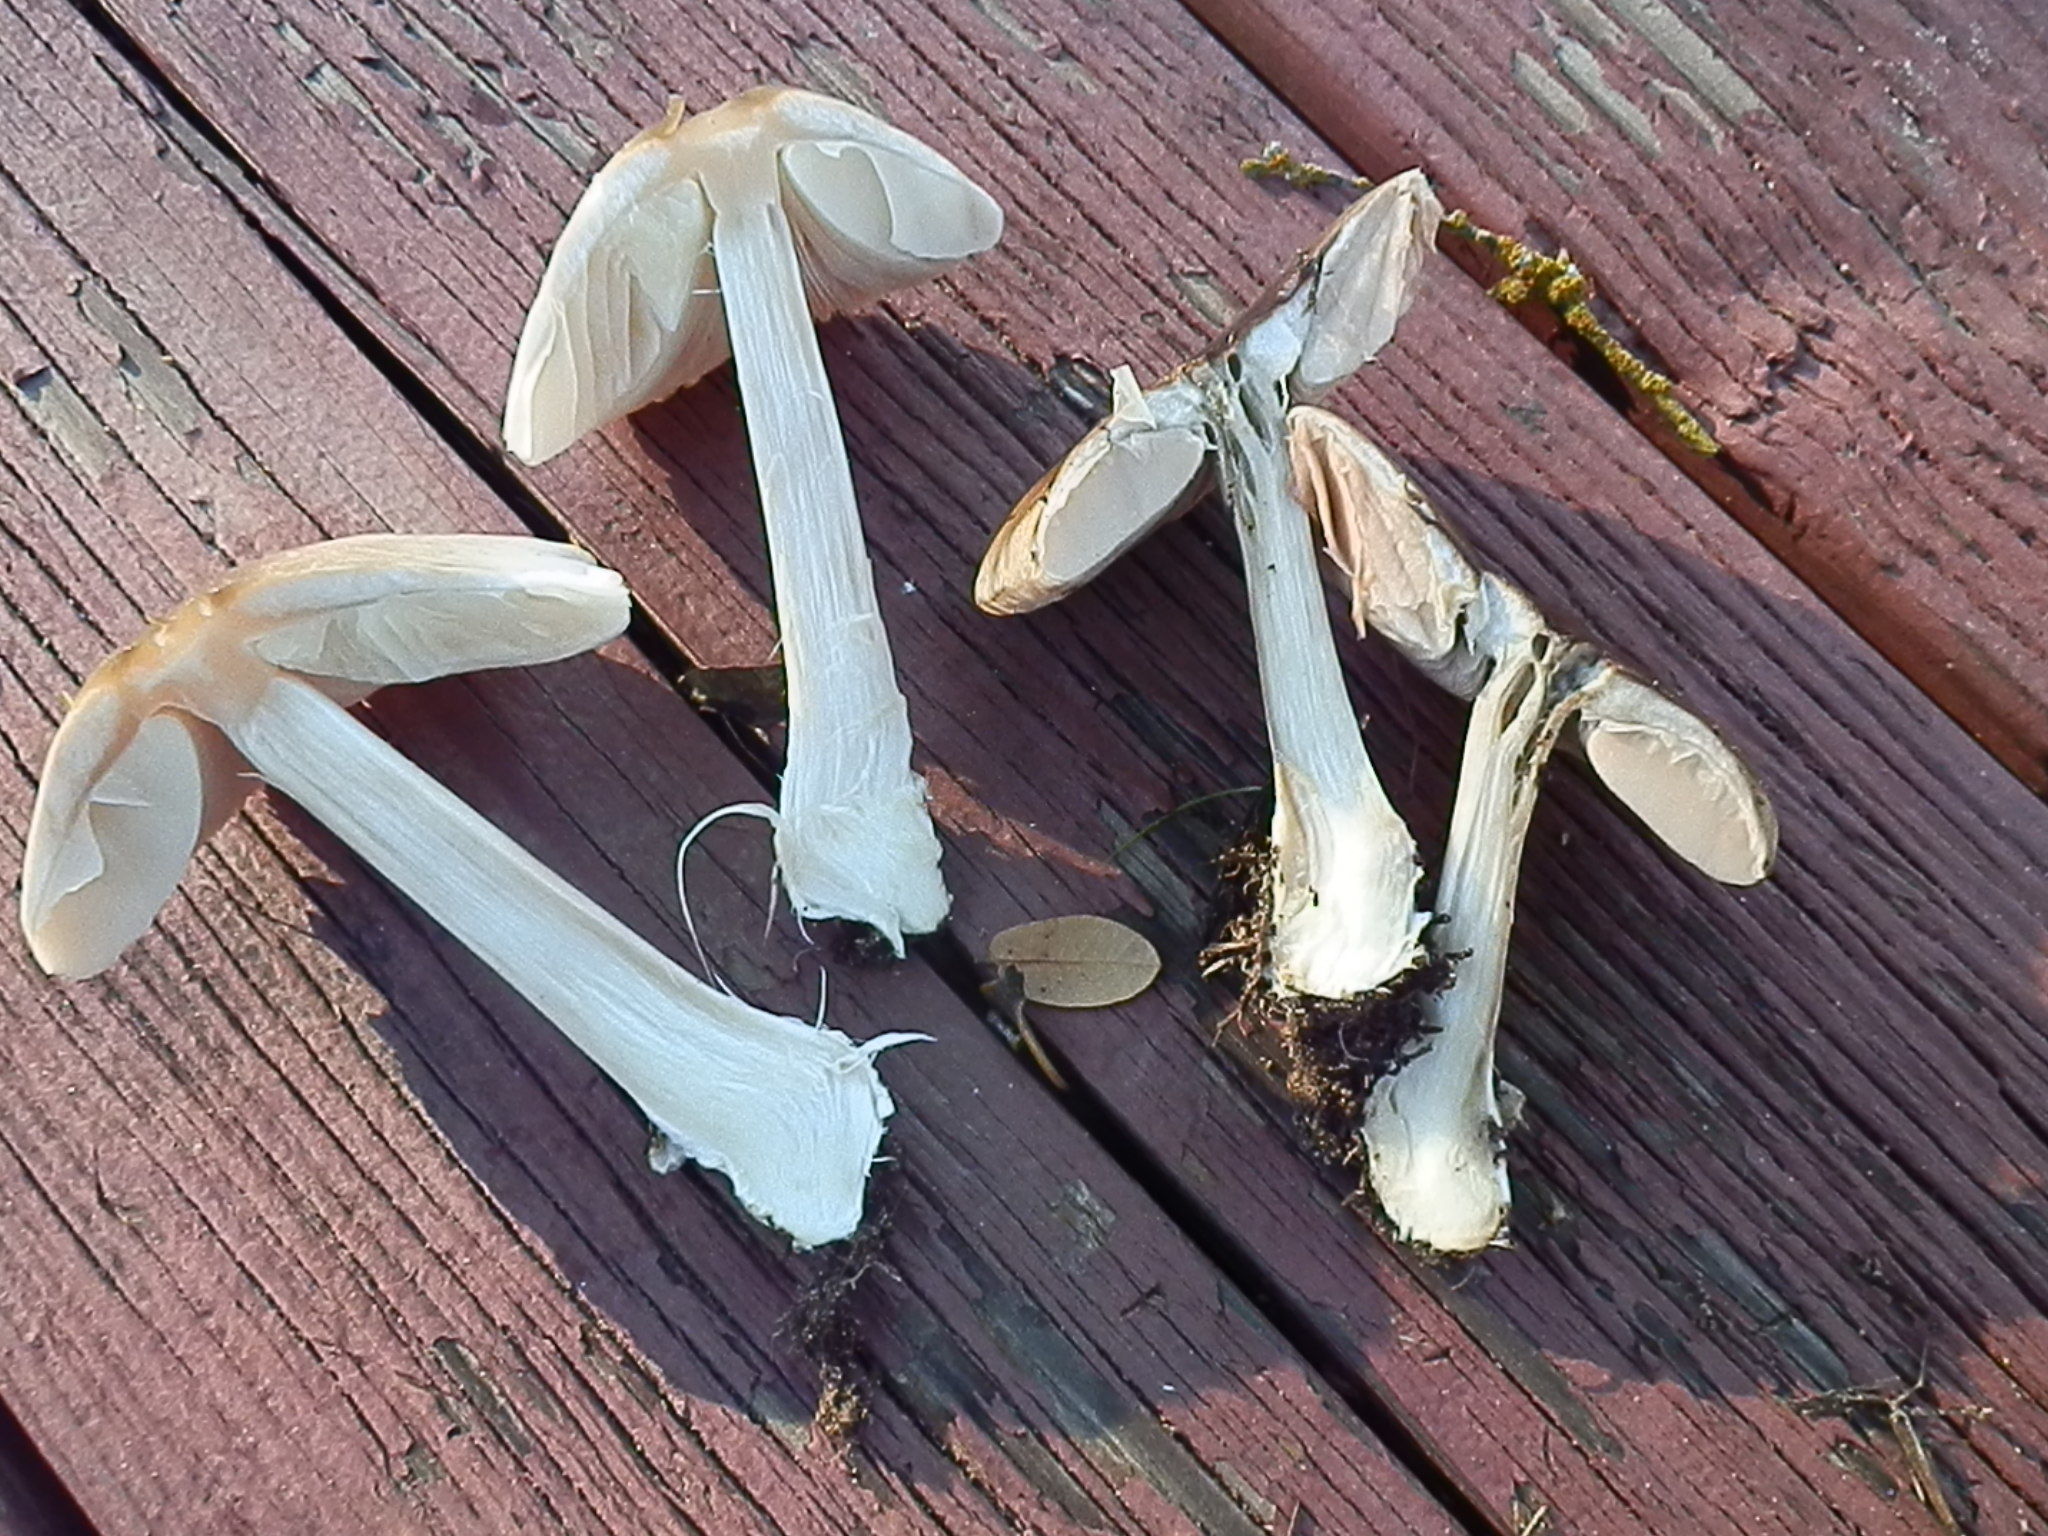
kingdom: Fungi
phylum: Basidiomycota
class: Agaricomycetes
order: Agaricales
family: Pluteaceae
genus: Volvopluteus
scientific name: Volvopluteus gloiocephalus
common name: Stubble rosegill
